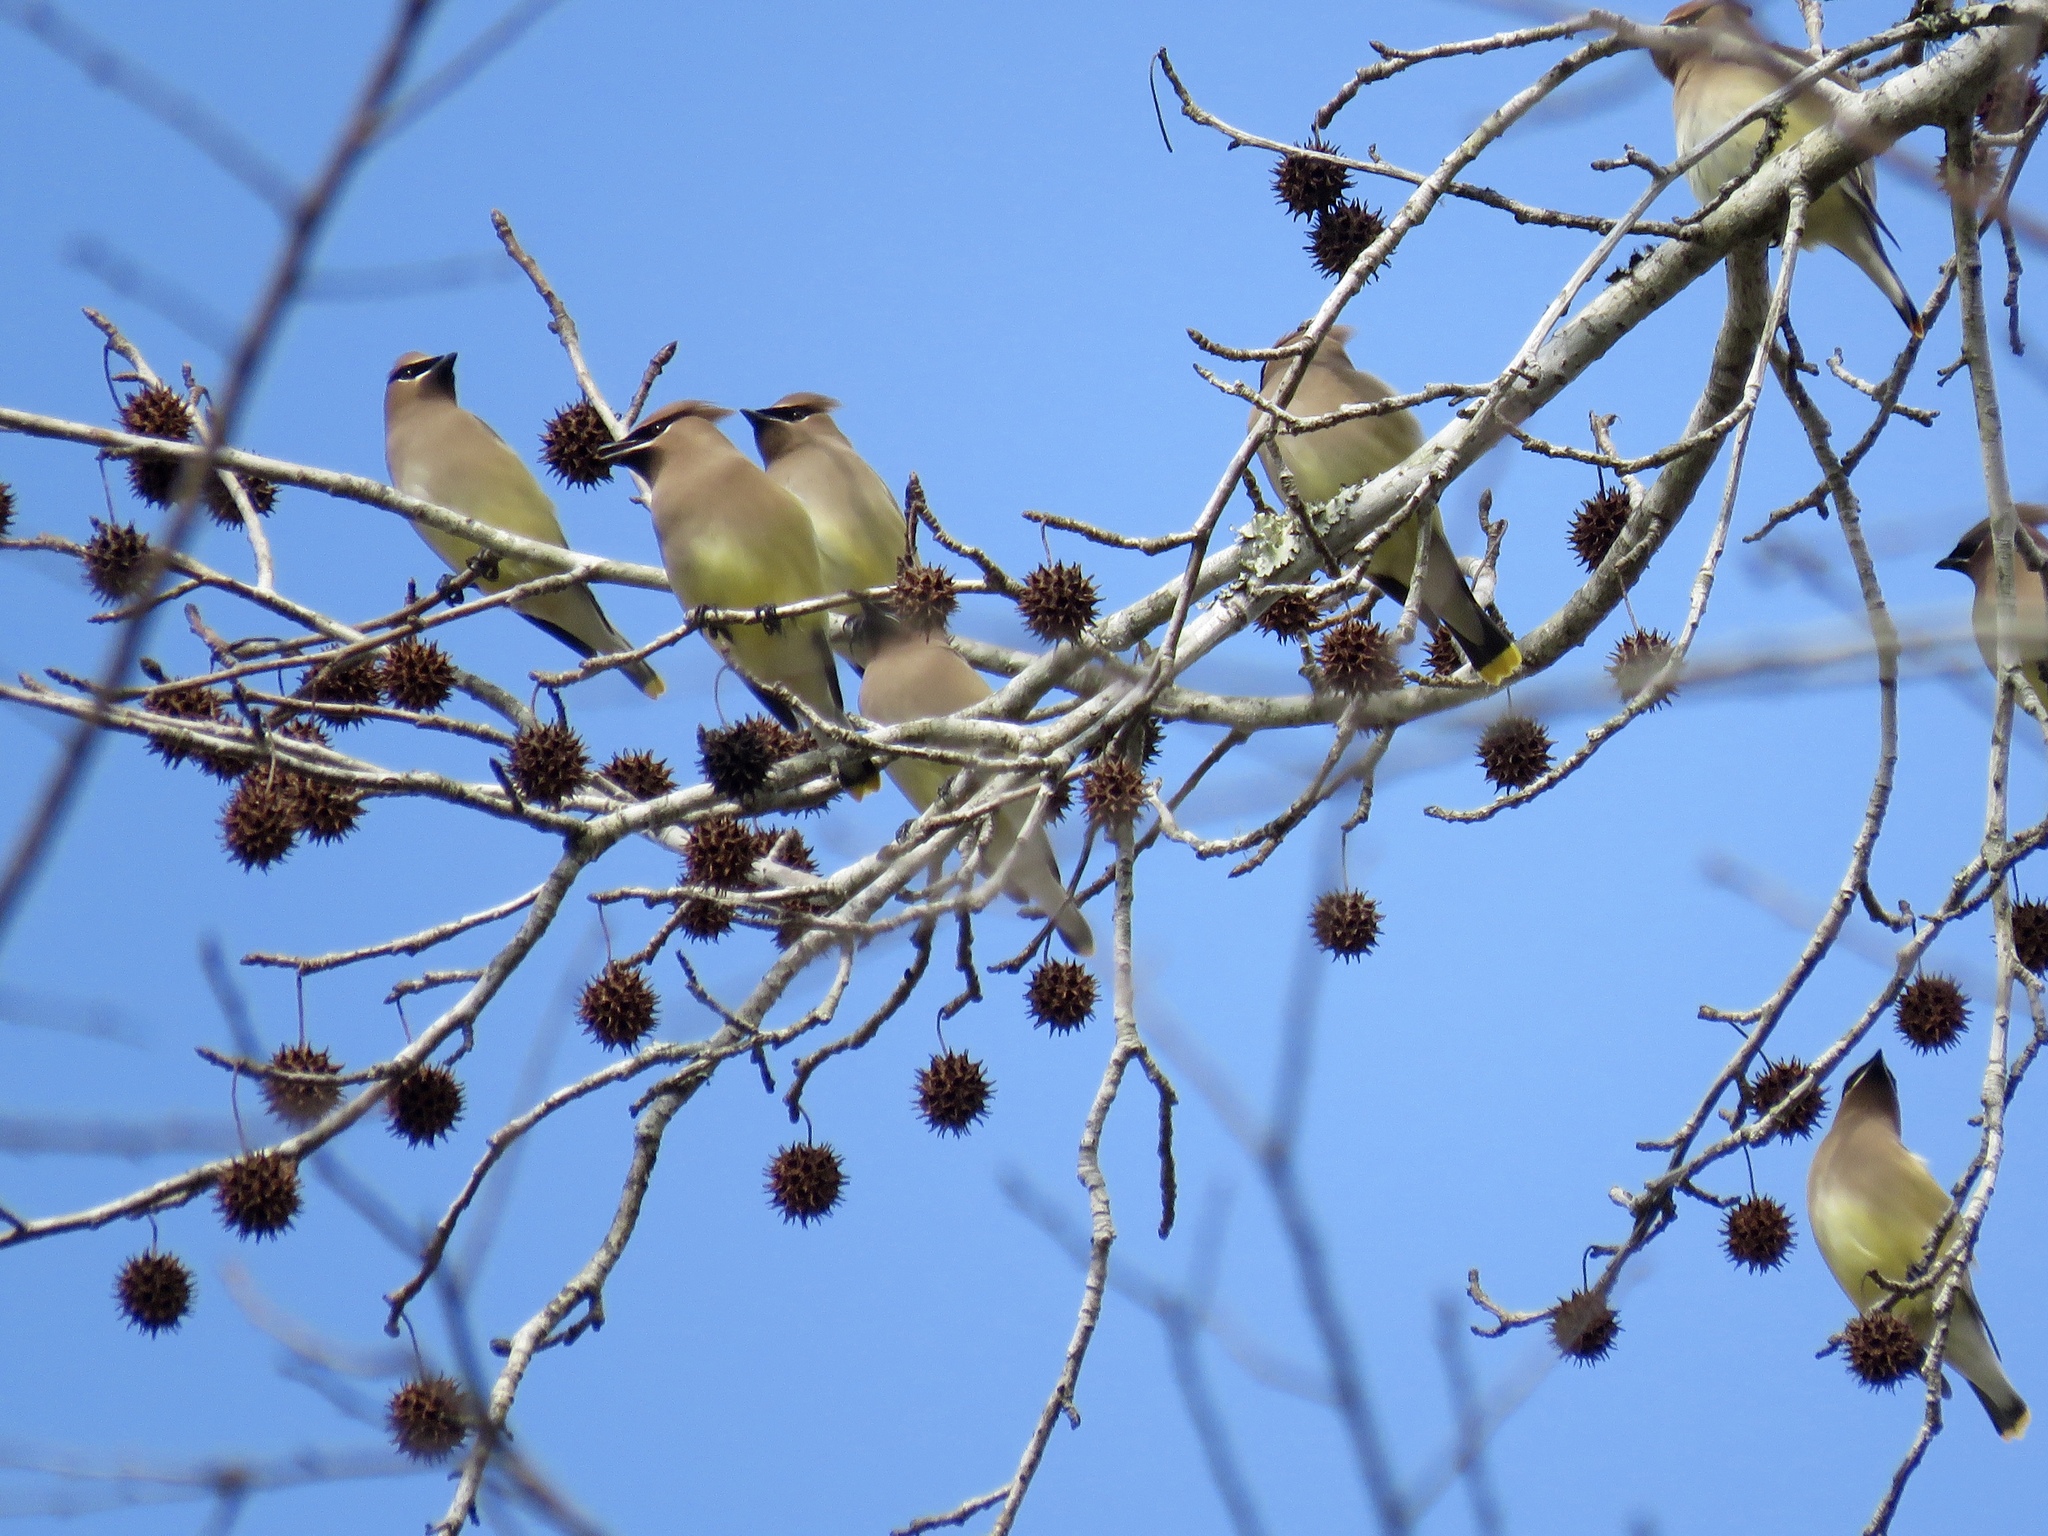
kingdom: Animalia
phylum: Chordata
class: Aves
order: Passeriformes
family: Bombycillidae
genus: Bombycilla
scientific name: Bombycilla cedrorum
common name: Cedar waxwing
